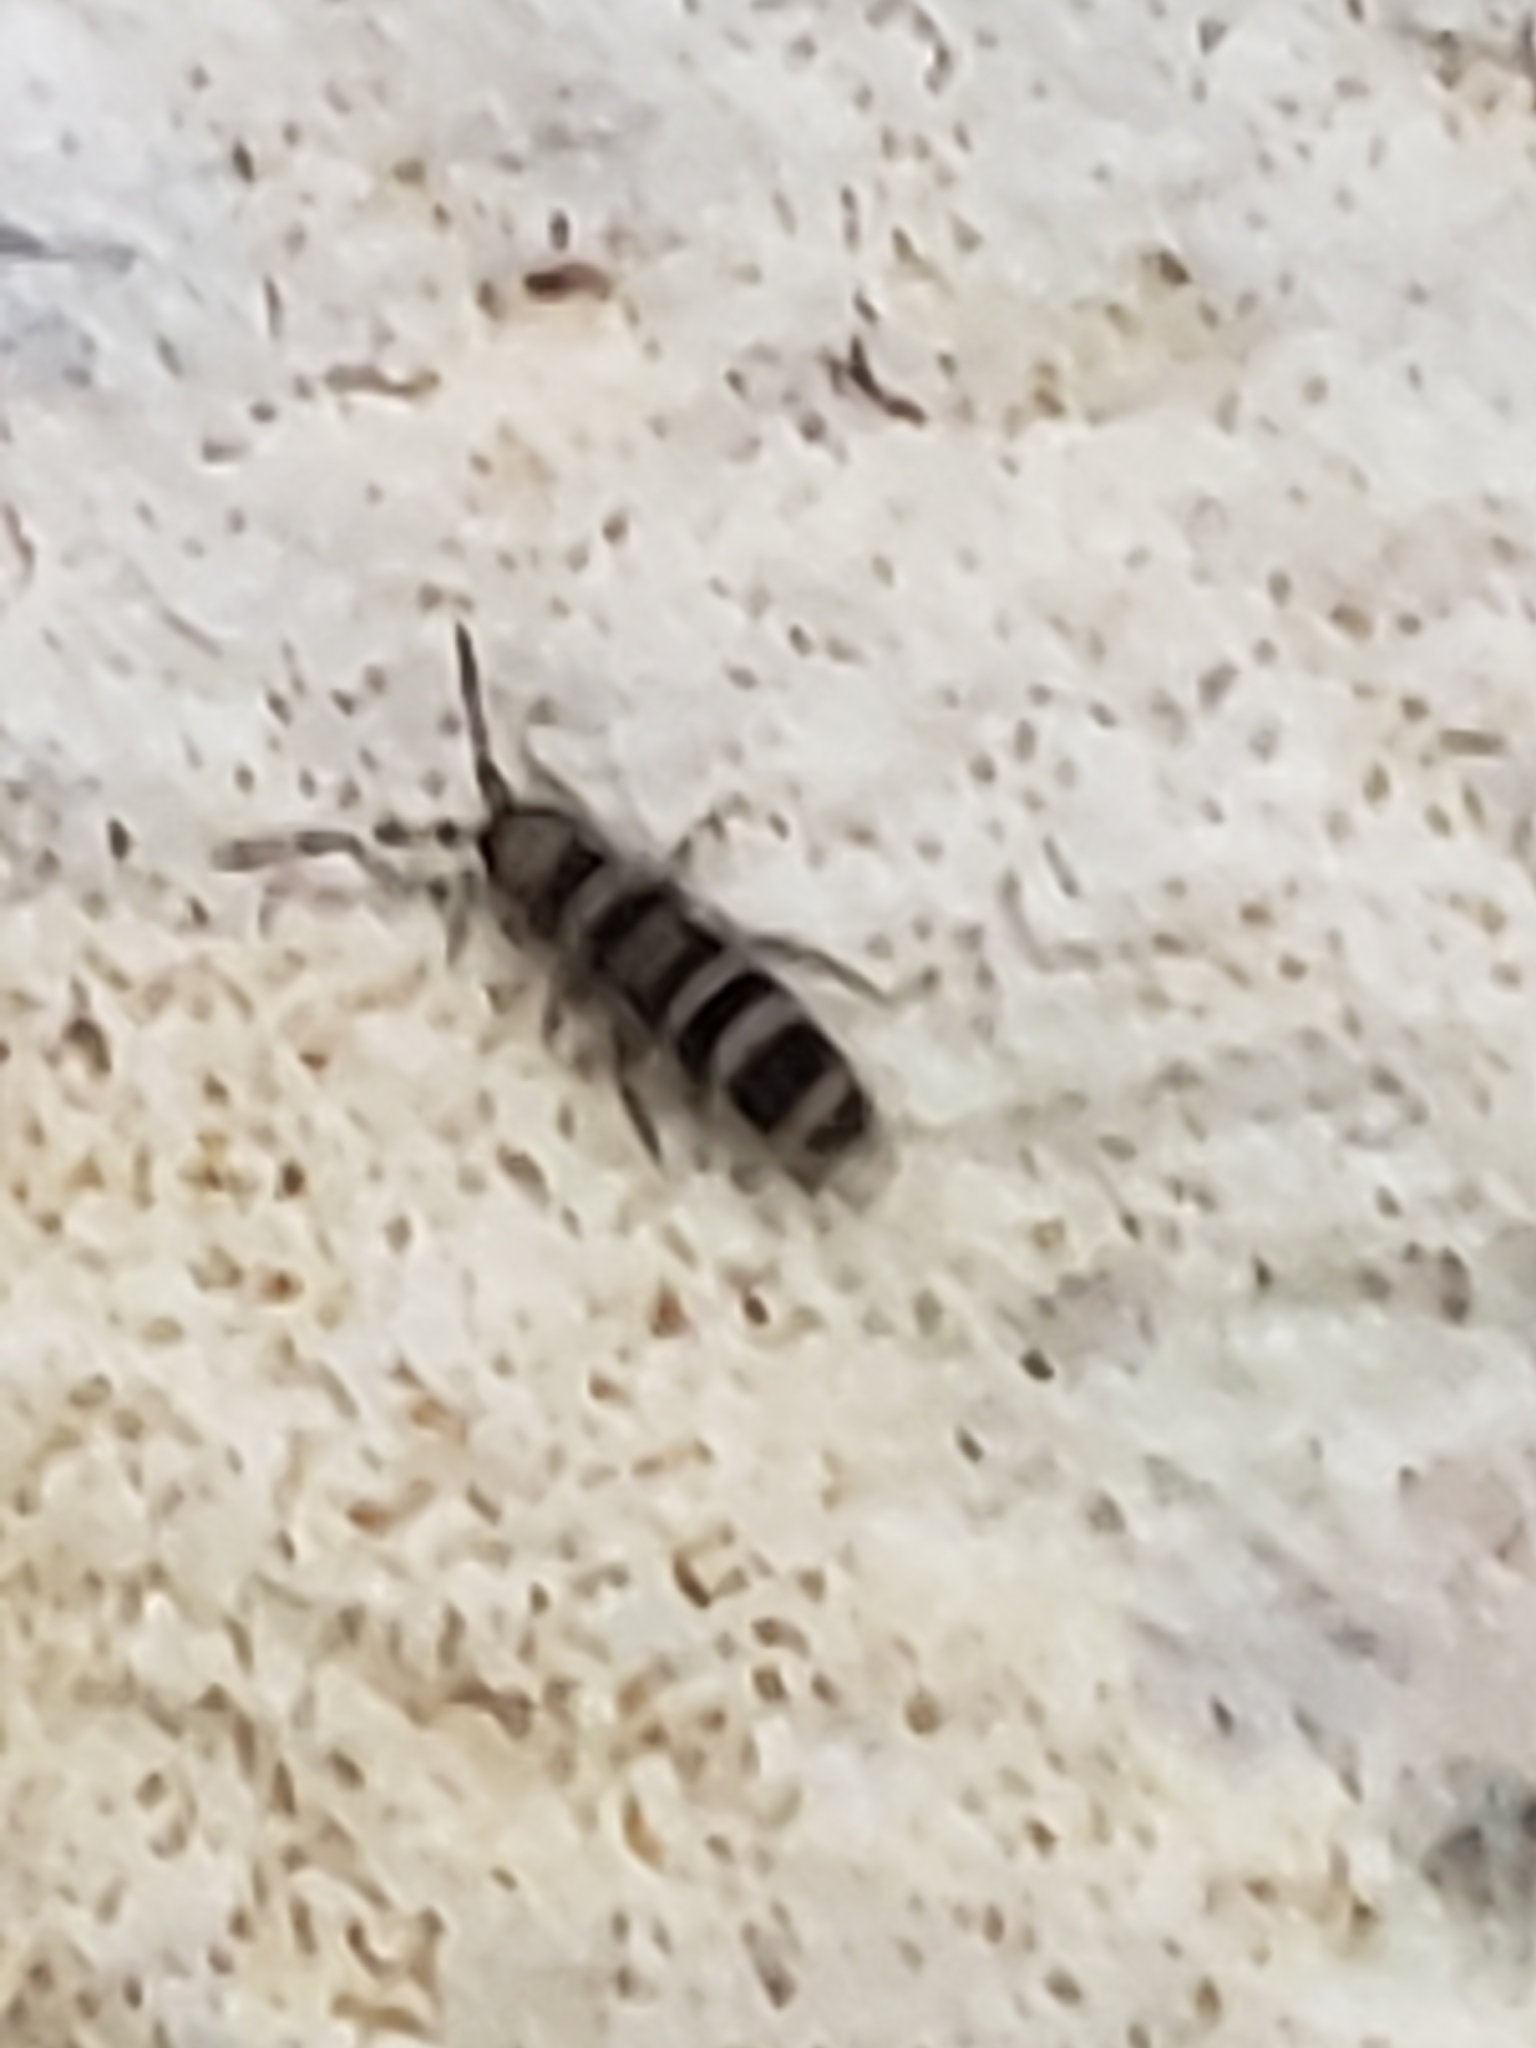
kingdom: Animalia
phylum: Arthropoda
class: Collembola
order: Entomobryomorpha
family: Orchesellidae
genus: Orchesella
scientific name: Orchesella hexfasciata
